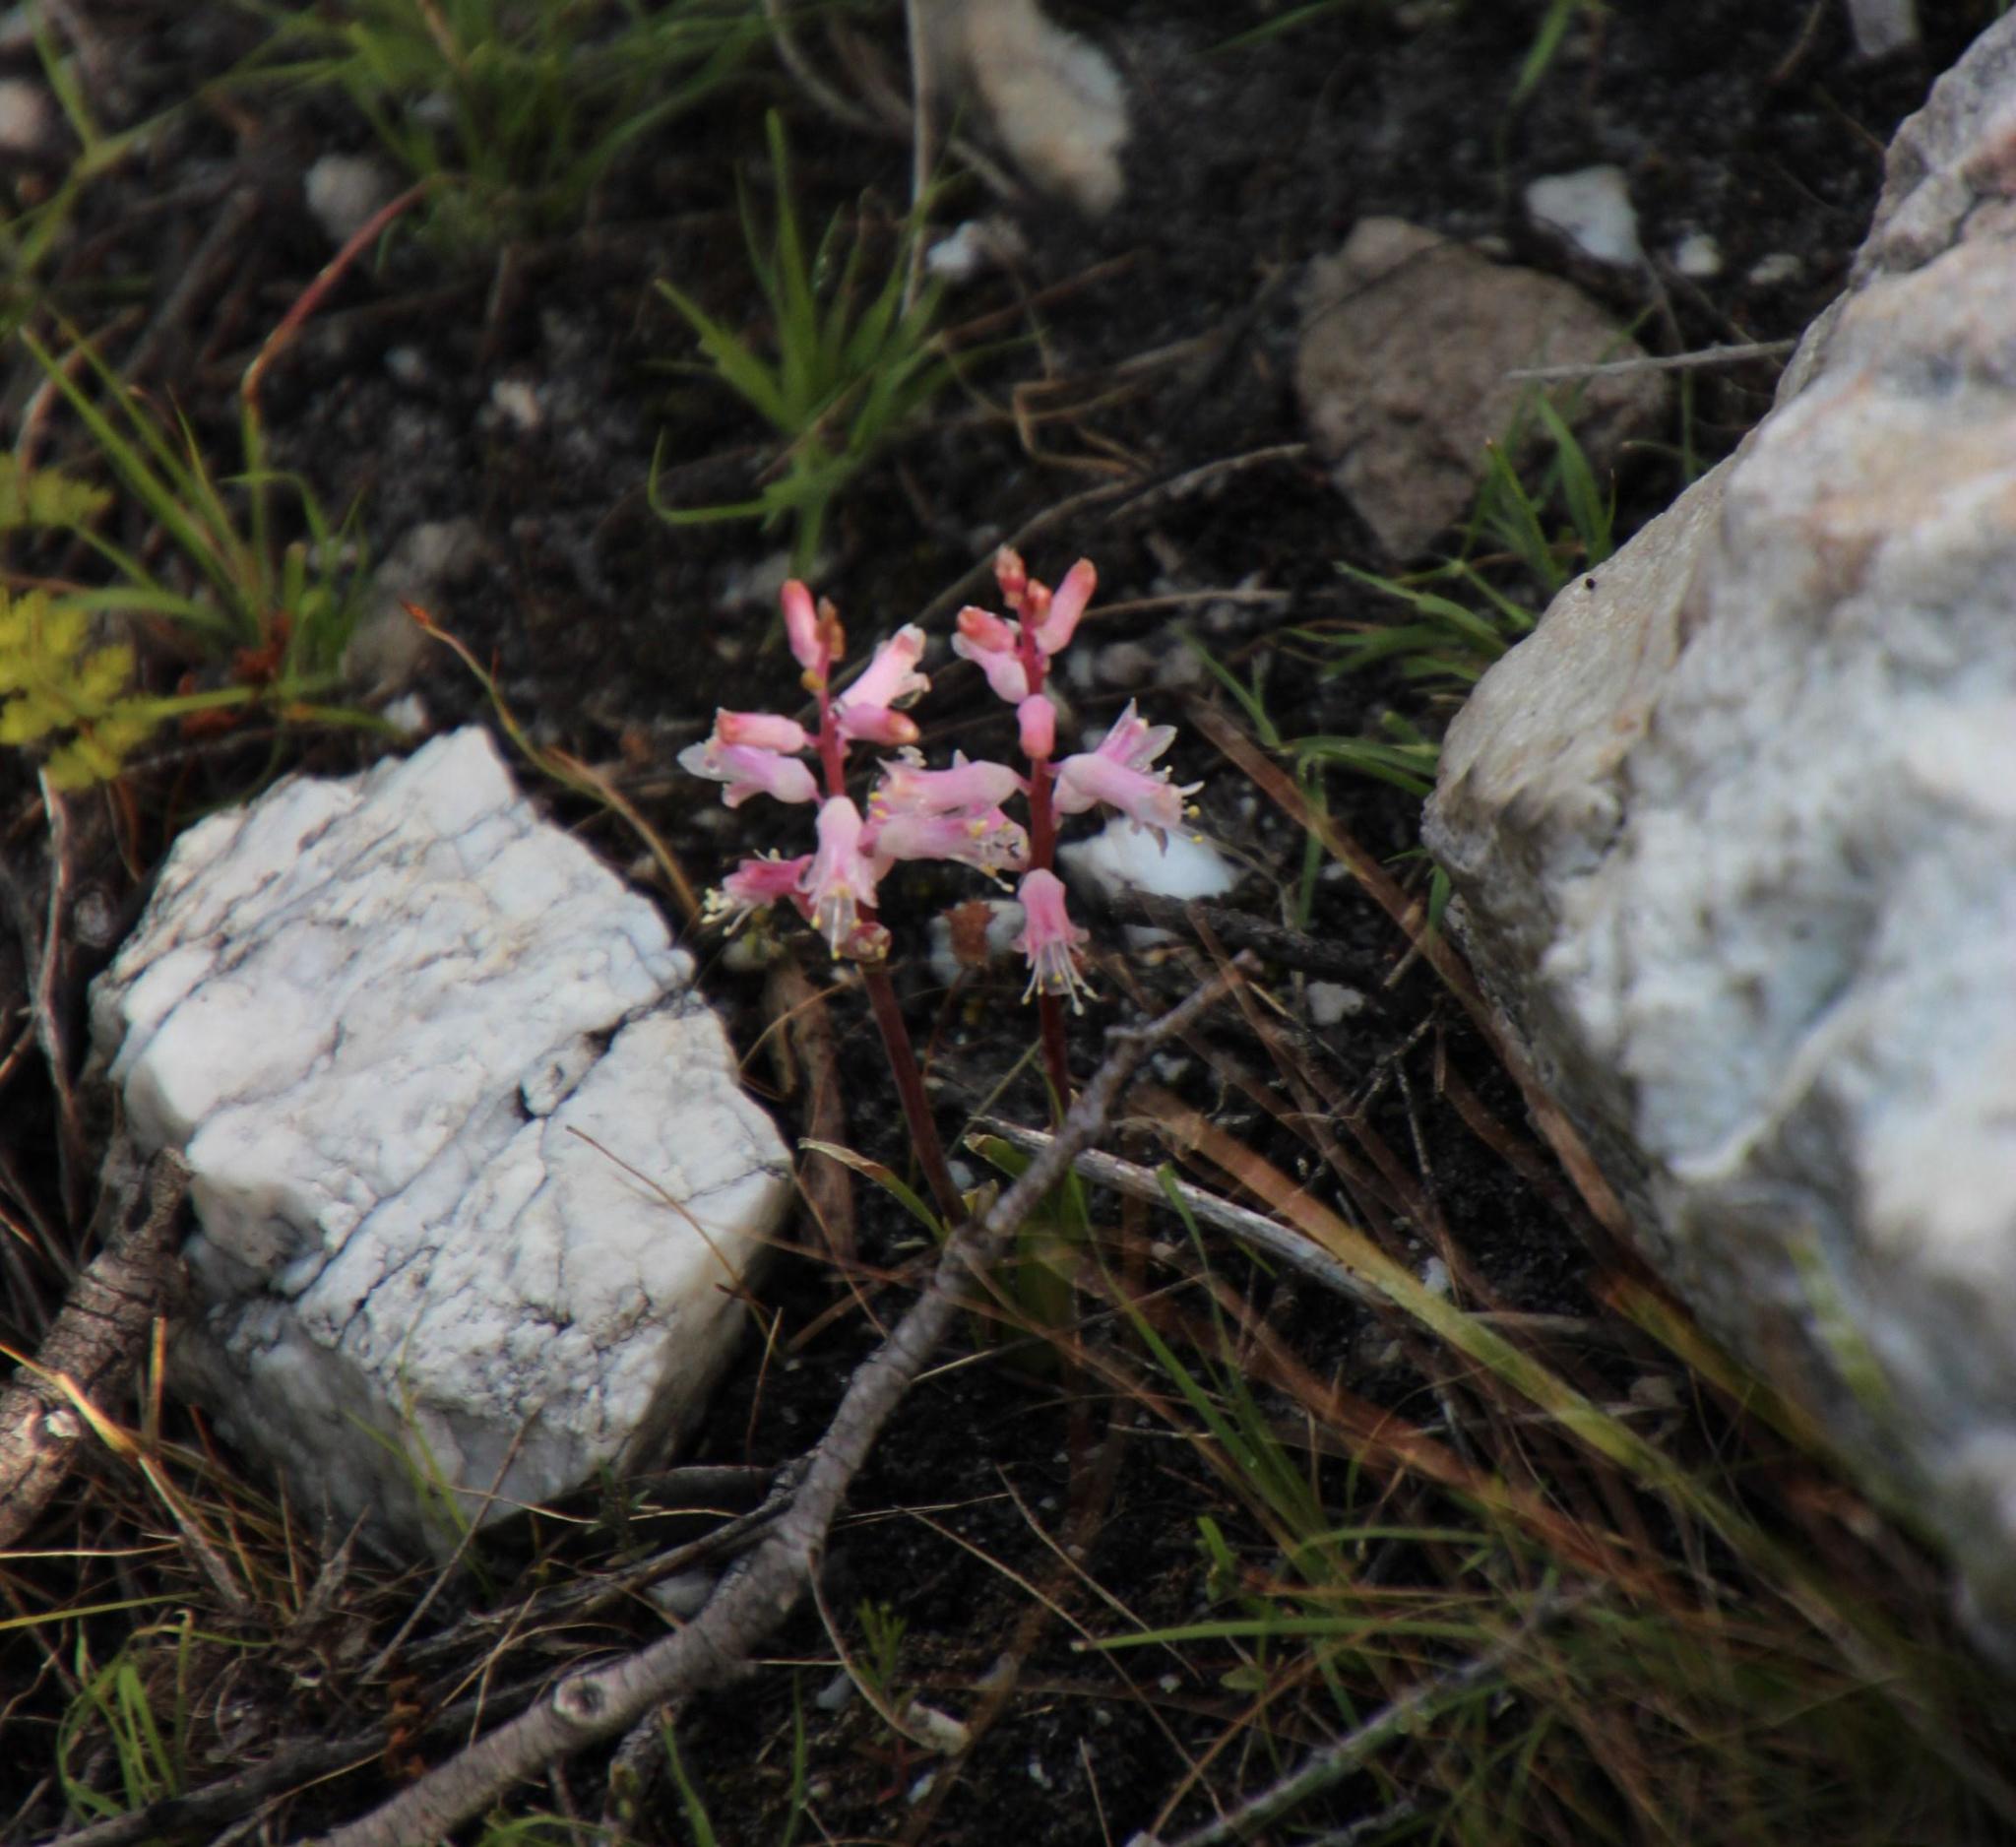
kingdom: Plantae
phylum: Tracheophyta
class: Liliopsida
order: Asparagales
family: Asparagaceae
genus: Lachenalia
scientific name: Lachenalia rosea
